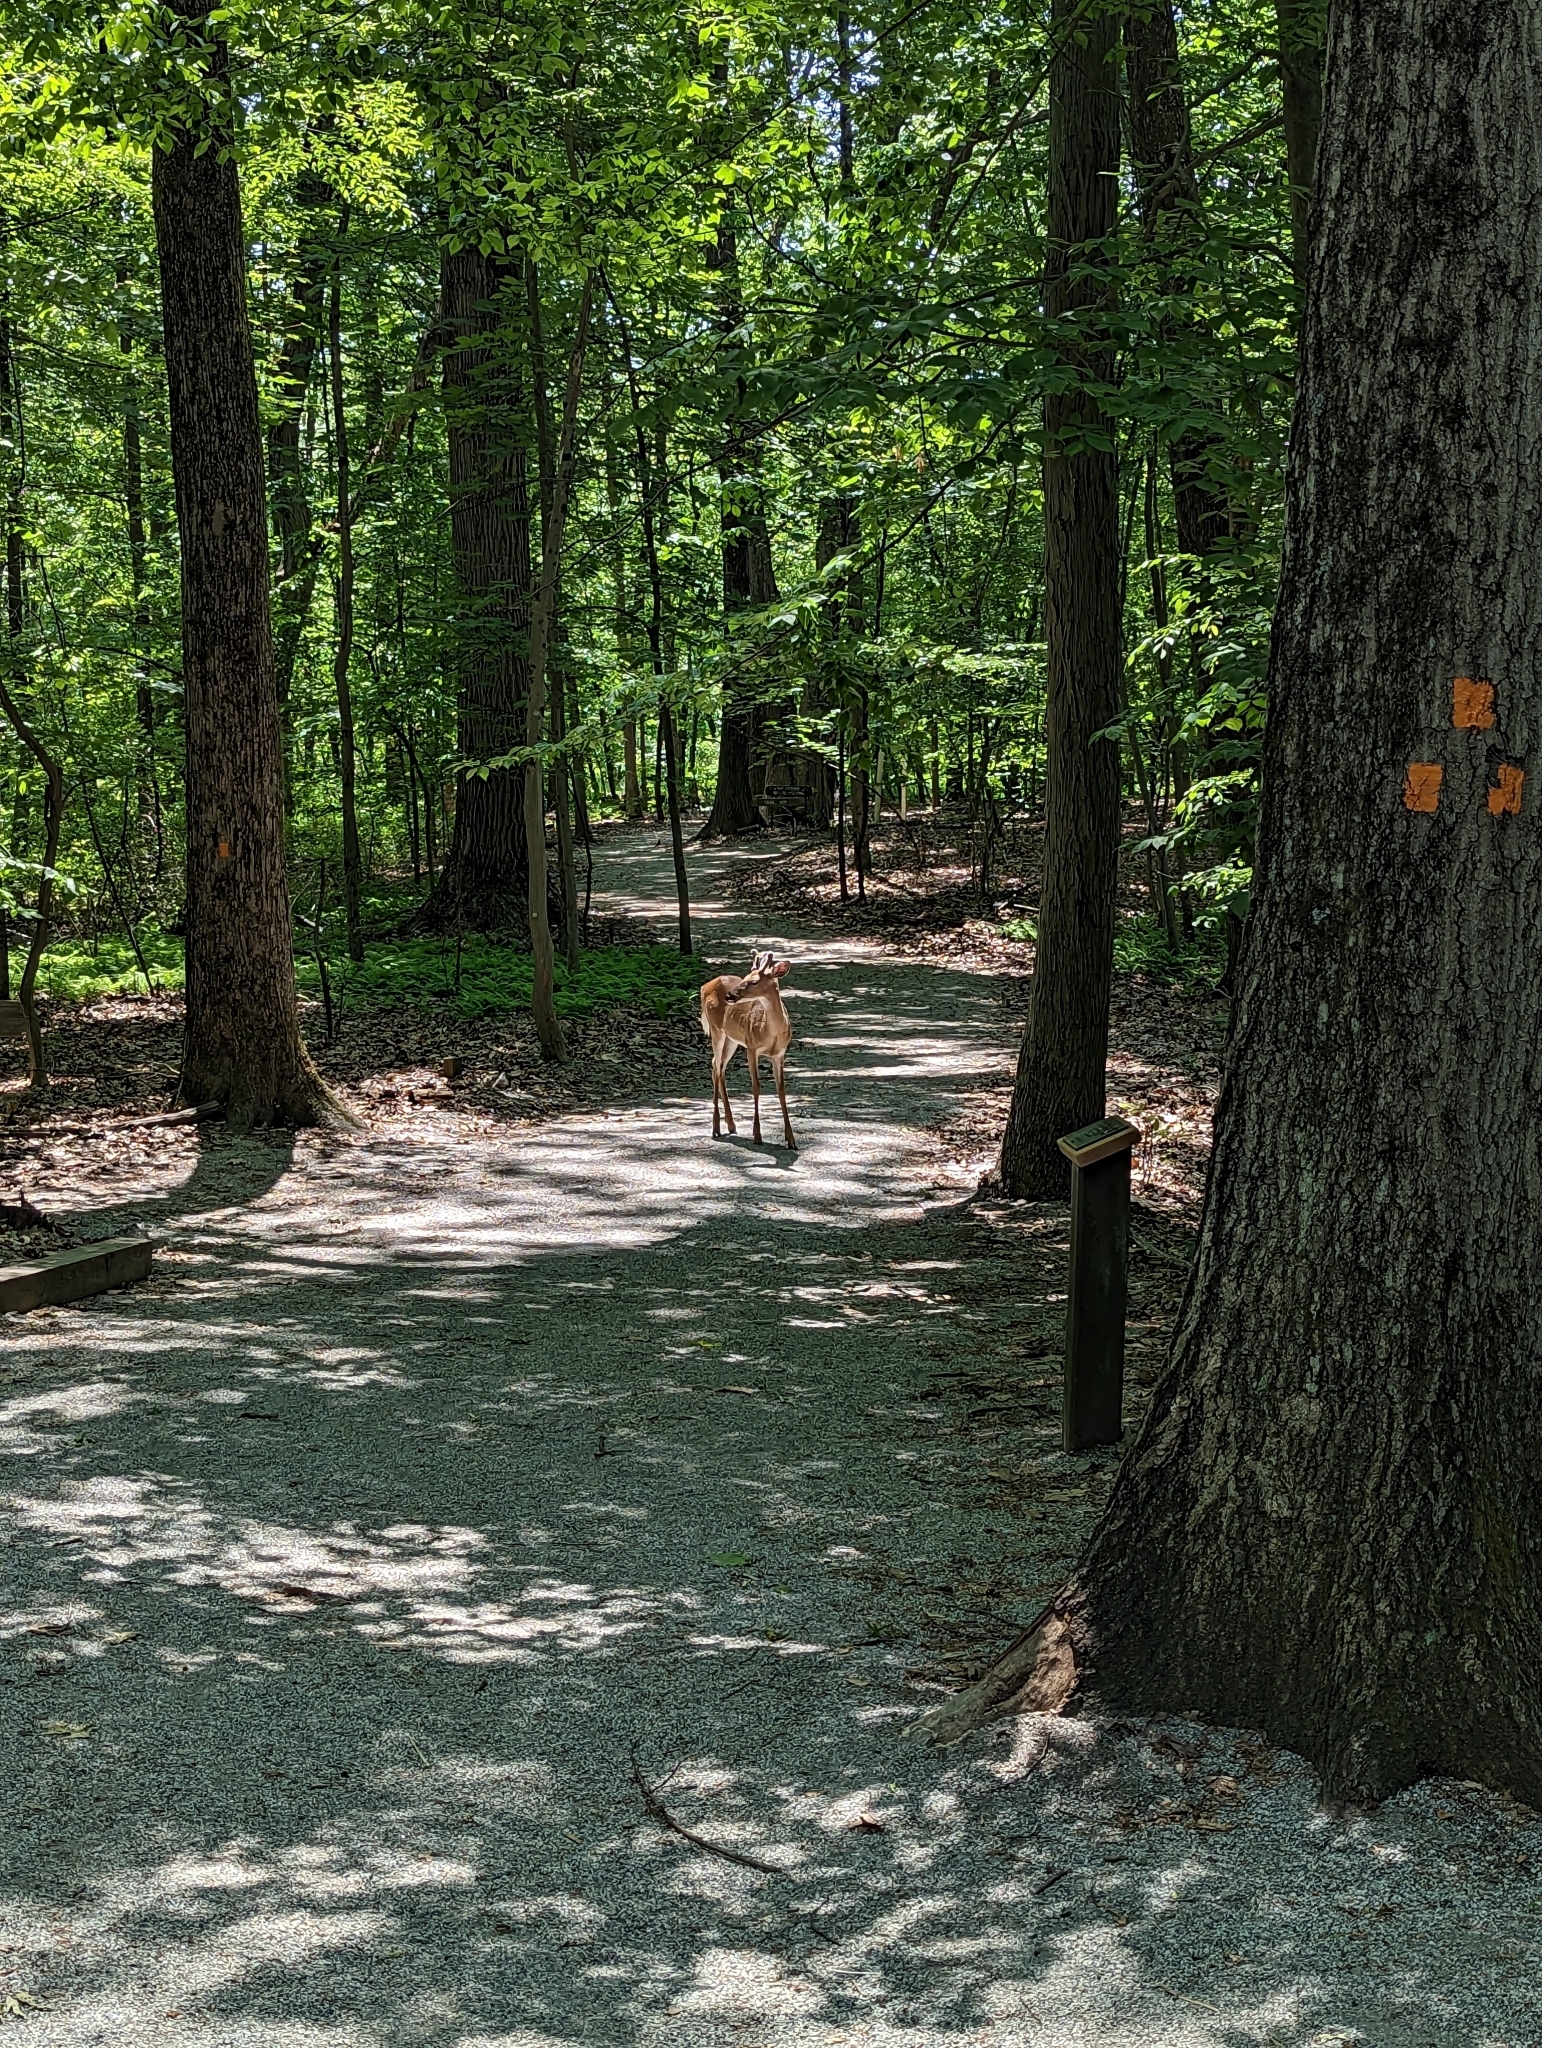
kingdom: Animalia
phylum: Chordata
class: Mammalia
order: Artiodactyla
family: Cervidae
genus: Odocoileus
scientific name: Odocoileus virginianus
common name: White-tailed deer
